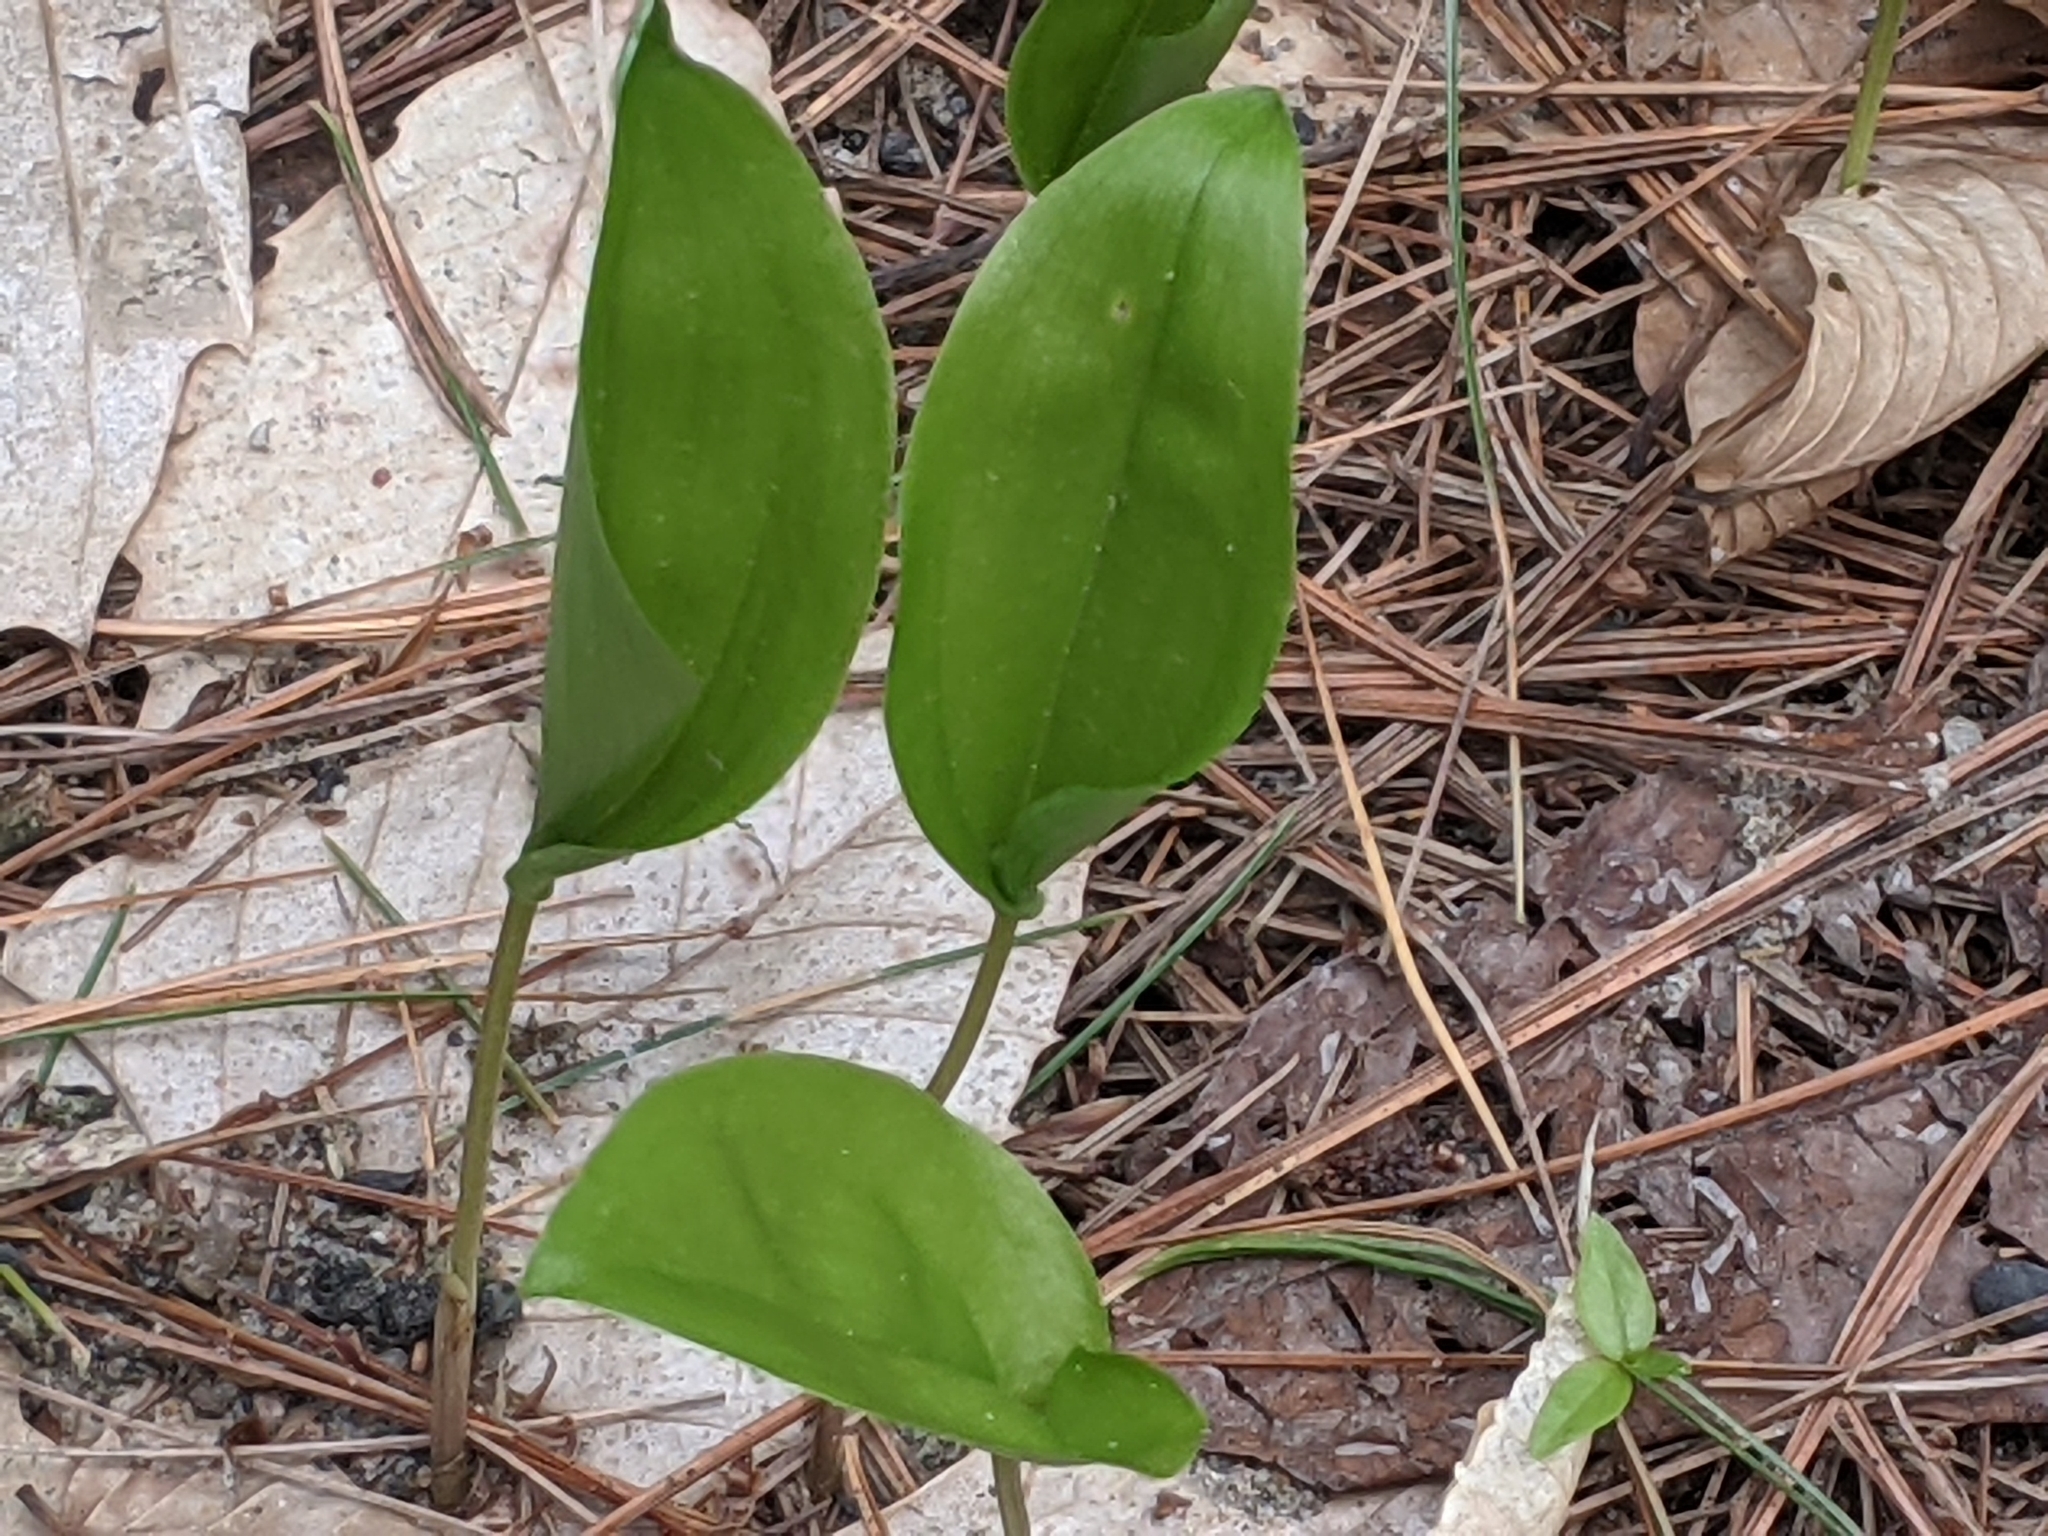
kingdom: Plantae
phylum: Tracheophyta
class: Liliopsida
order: Asparagales
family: Asparagaceae
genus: Maianthemum
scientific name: Maianthemum canadense
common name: False lily-of-the-valley
